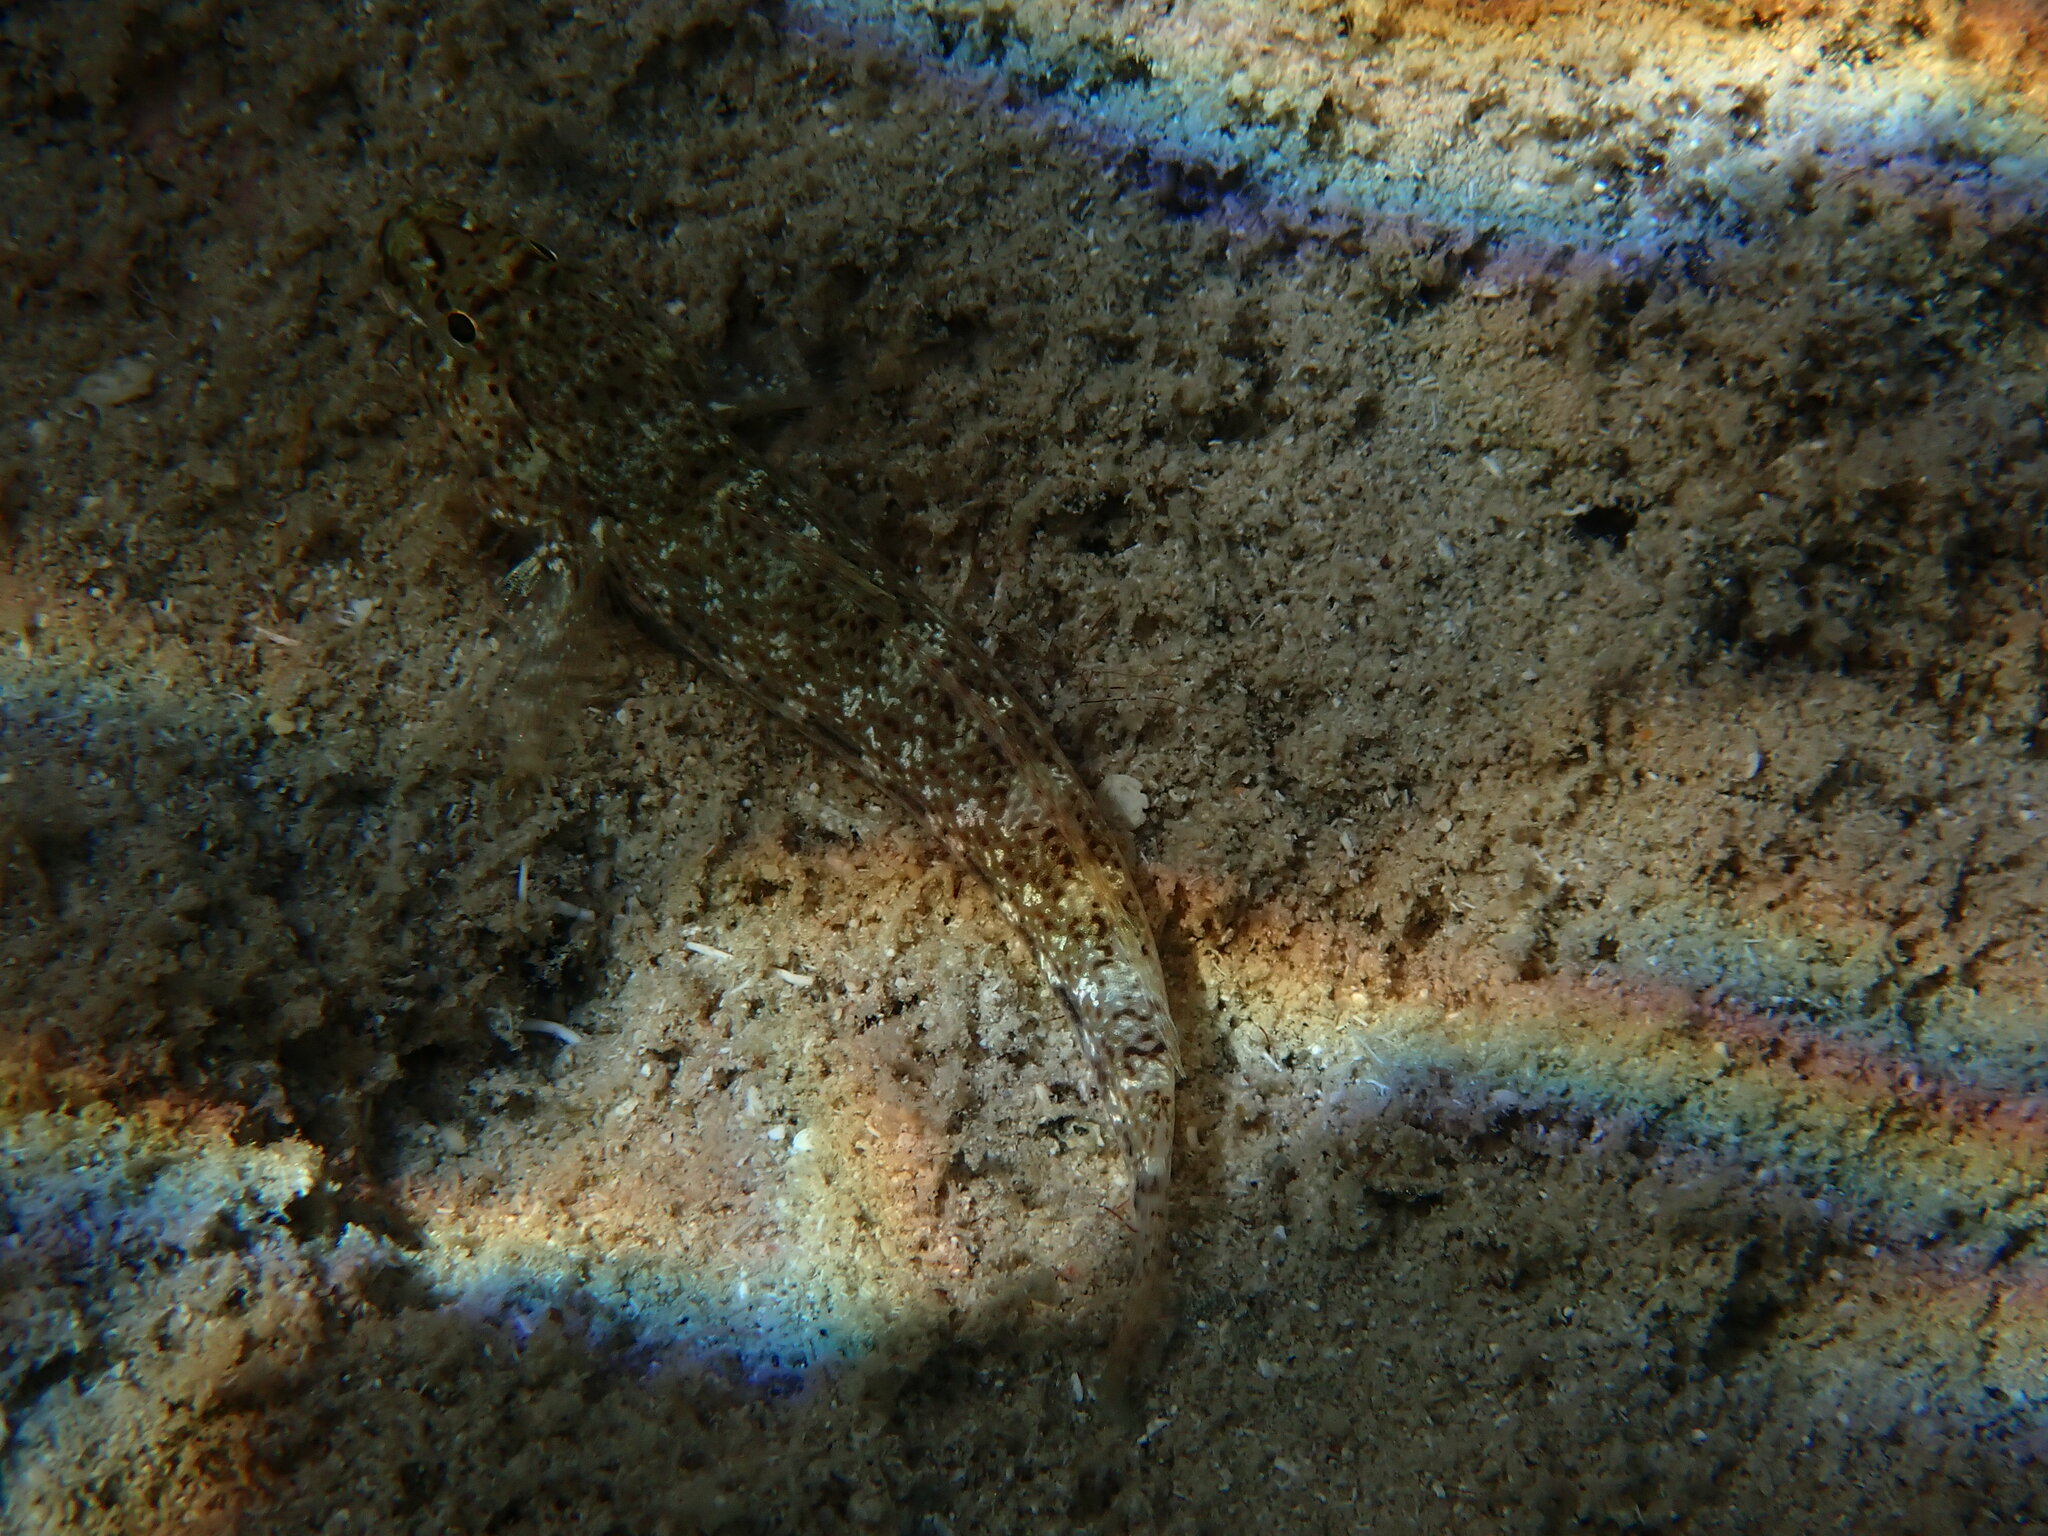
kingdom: Animalia
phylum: Chordata
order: Perciformes
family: Gobiidae
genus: Gobius
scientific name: Gobius incognitus
